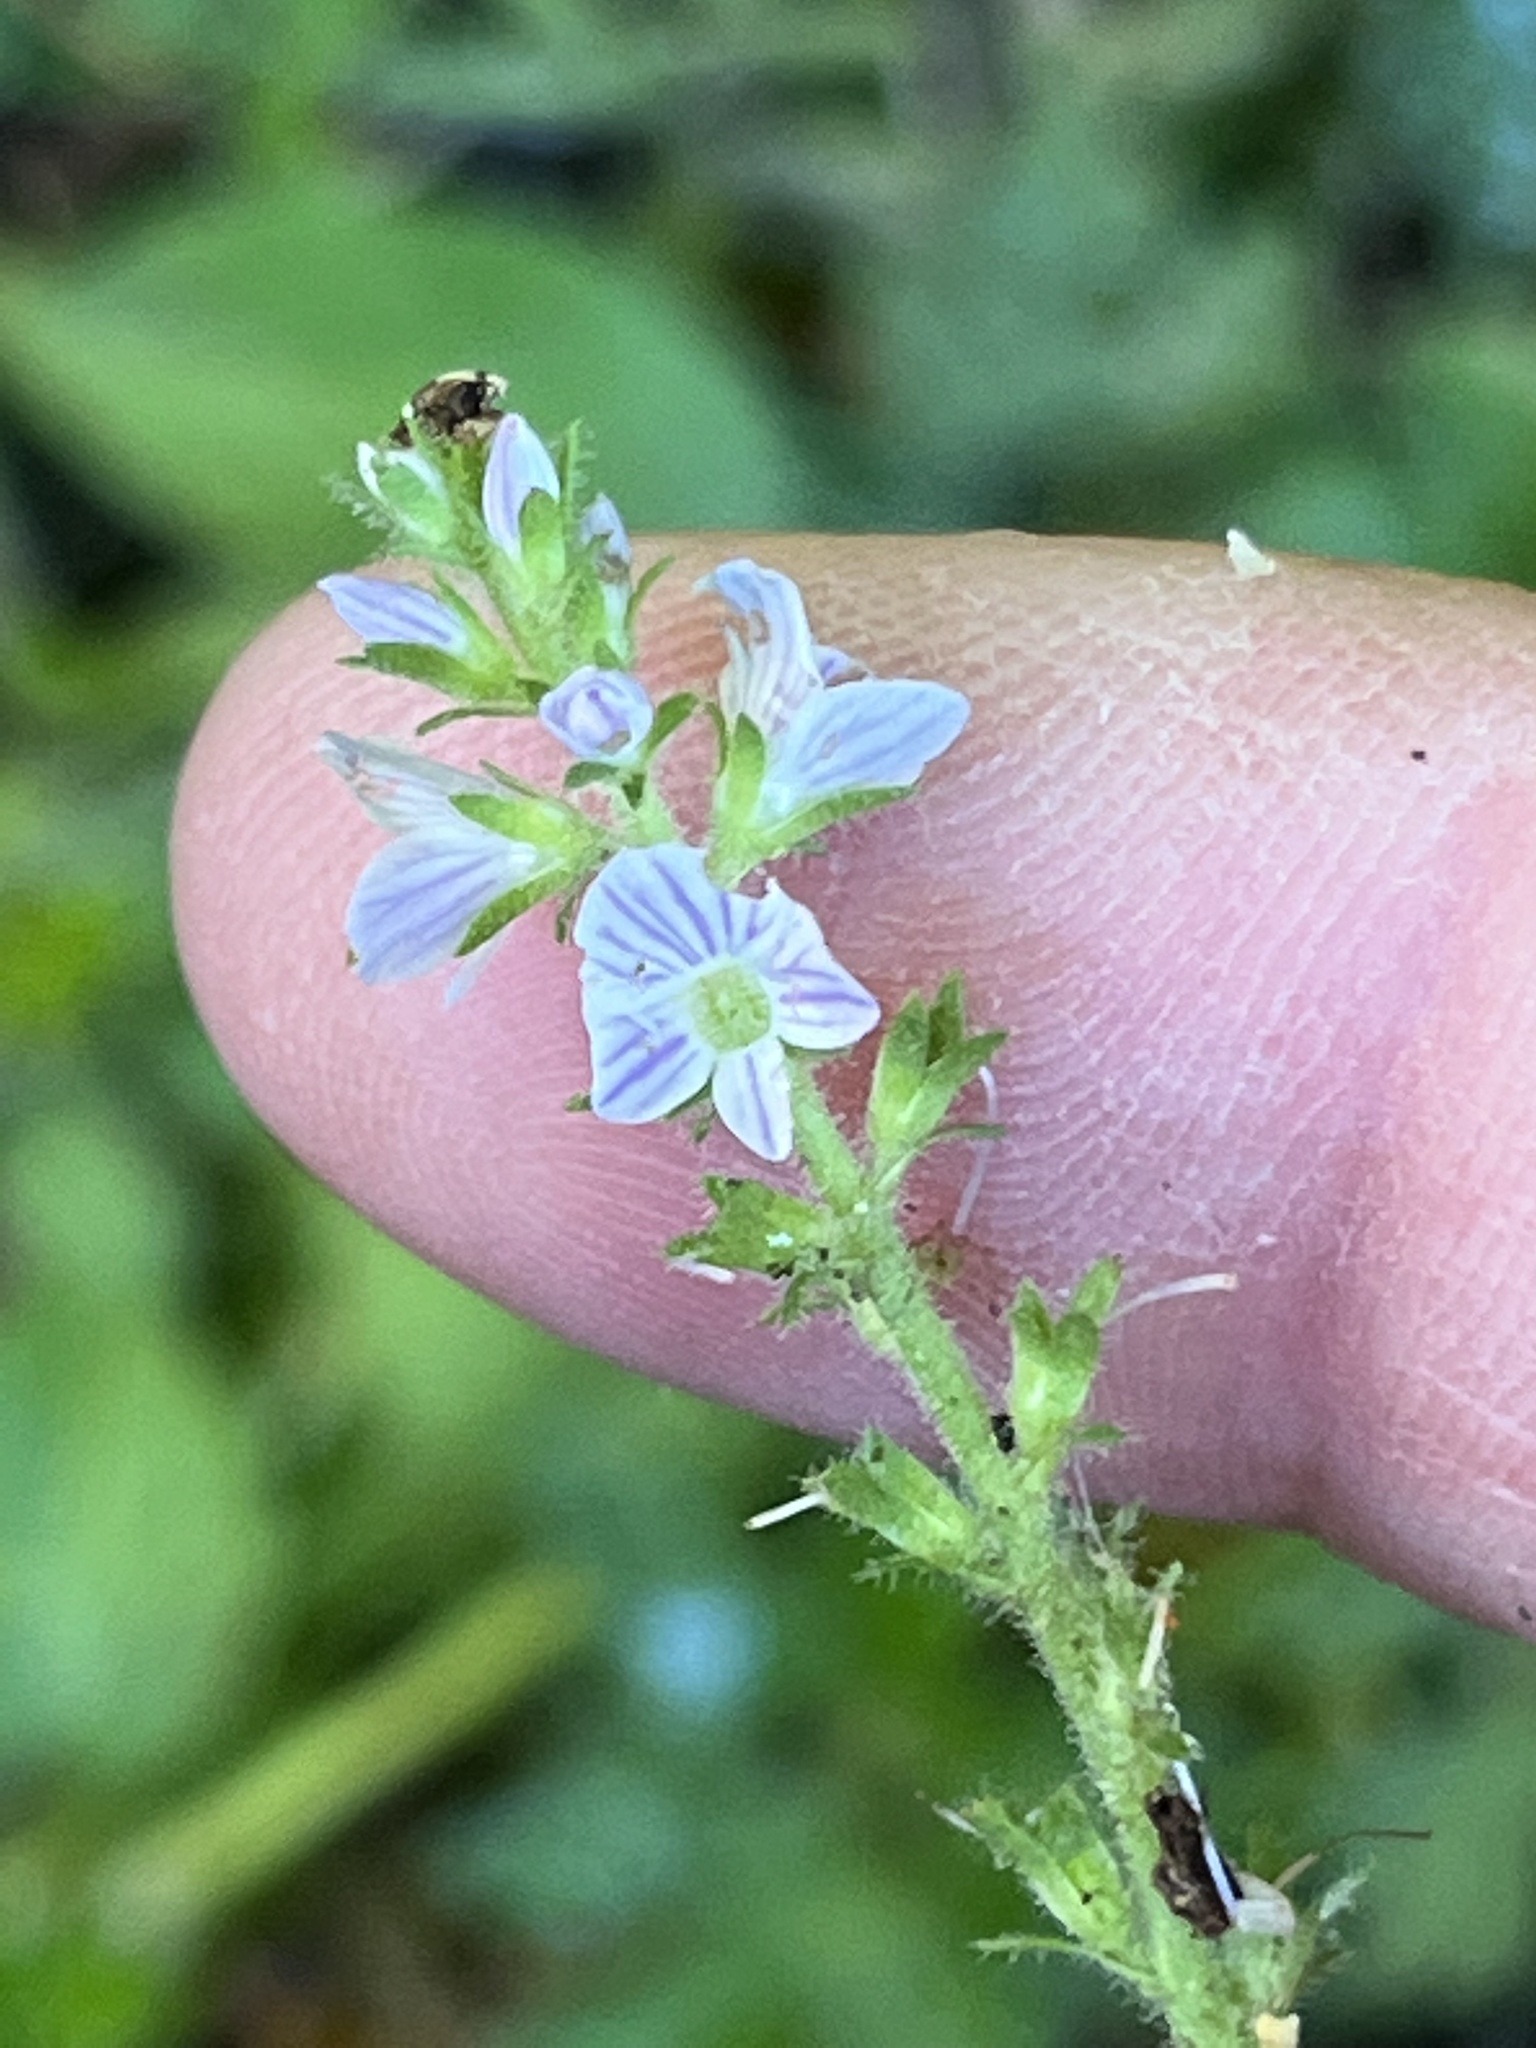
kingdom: Plantae
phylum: Tracheophyta
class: Magnoliopsida
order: Lamiales
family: Plantaginaceae
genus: Veronica
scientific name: Veronica officinalis
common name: Common speedwell
